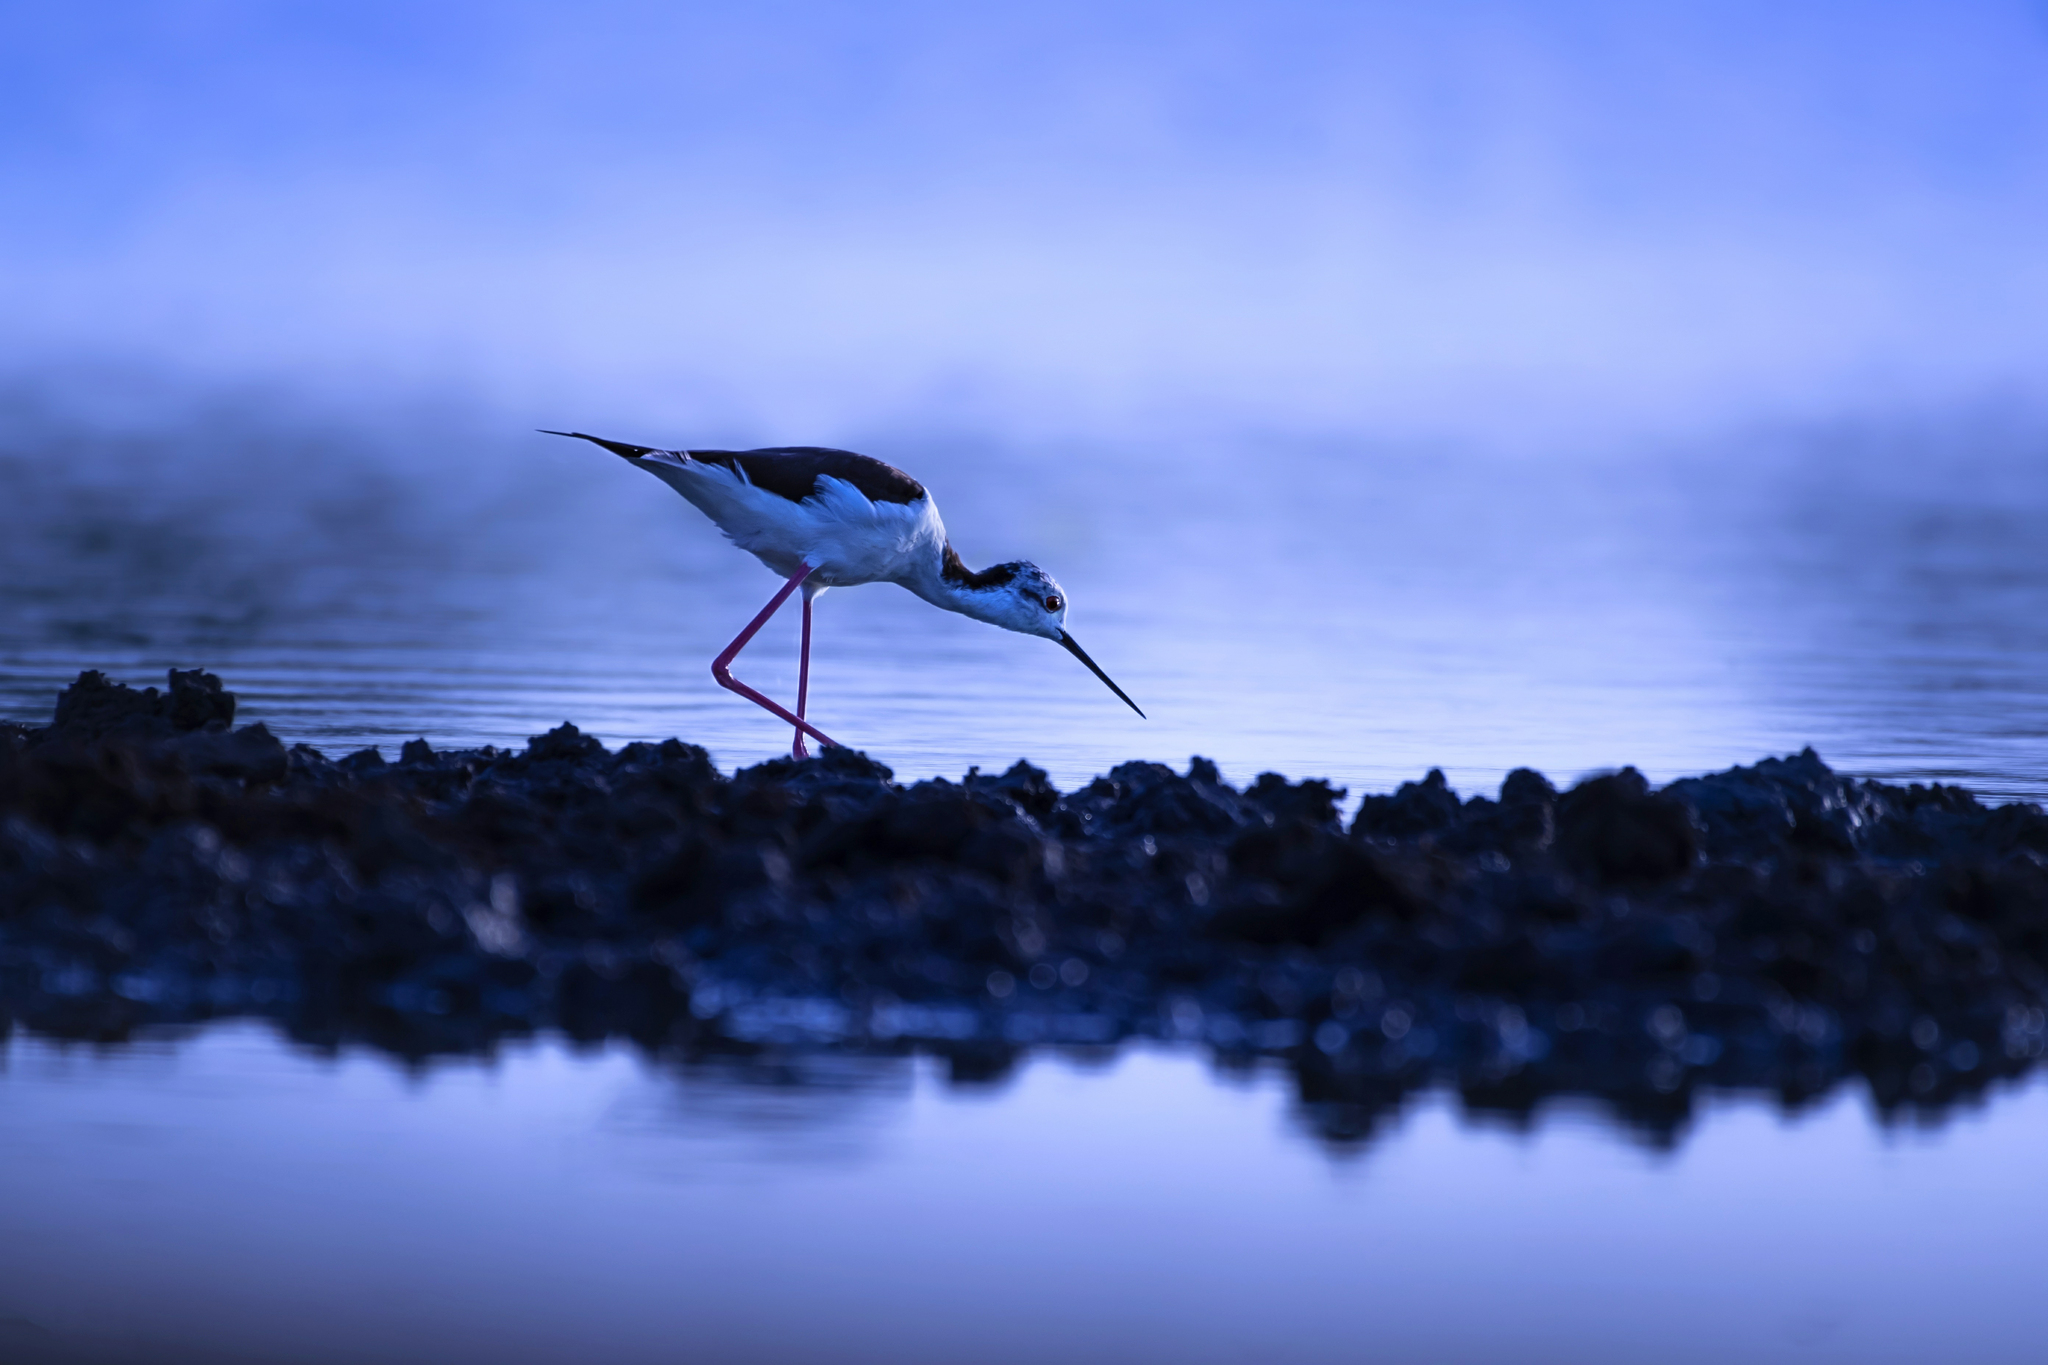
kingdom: Animalia
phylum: Chordata
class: Aves
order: Charadriiformes
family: Recurvirostridae
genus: Himantopus
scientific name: Himantopus himantopus
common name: Black-winged stilt
